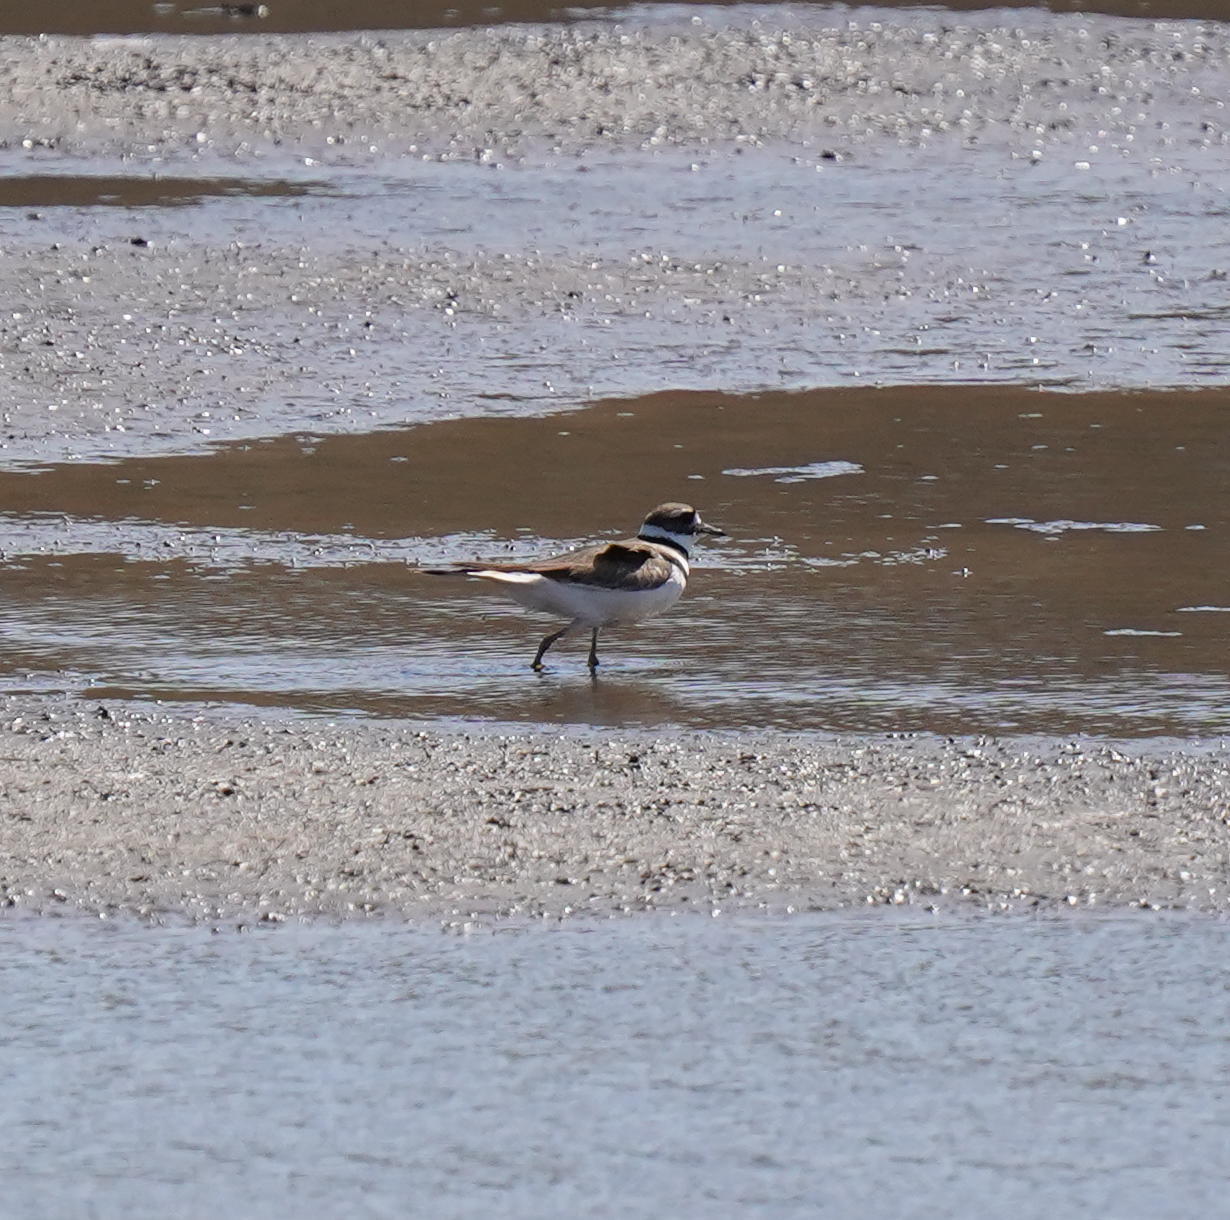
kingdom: Animalia
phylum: Chordata
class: Aves
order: Charadriiformes
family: Charadriidae
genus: Charadrius
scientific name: Charadrius vociferus
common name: Killdeer
